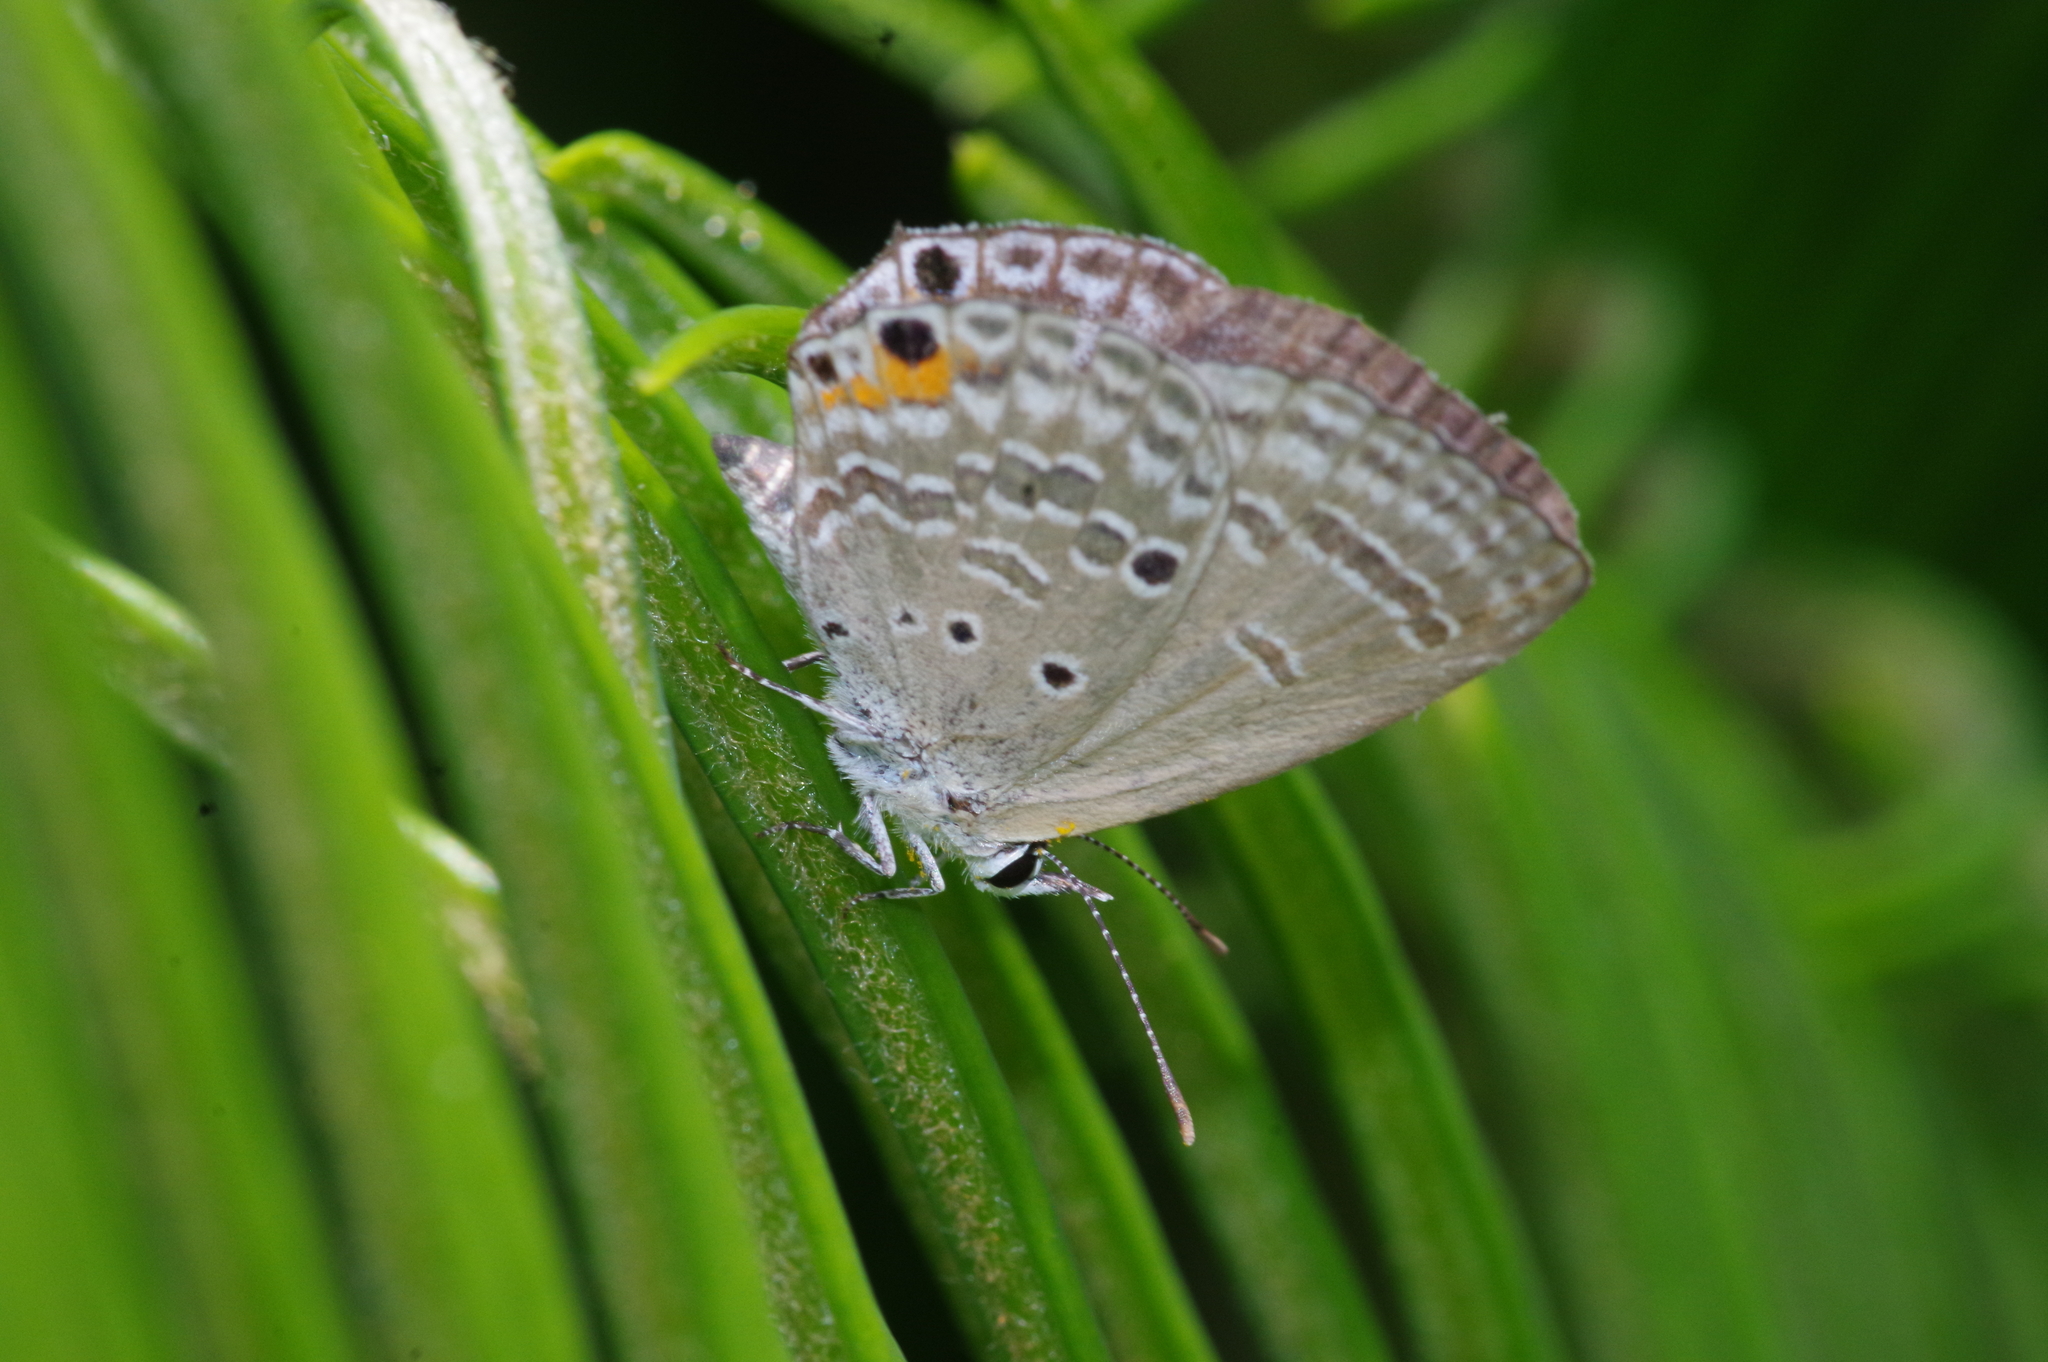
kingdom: Animalia
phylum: Arthropoda
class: Insecta
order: Lepidoptera
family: Lycaenidae
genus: Luthrodes
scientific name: Luthrodes pandava
